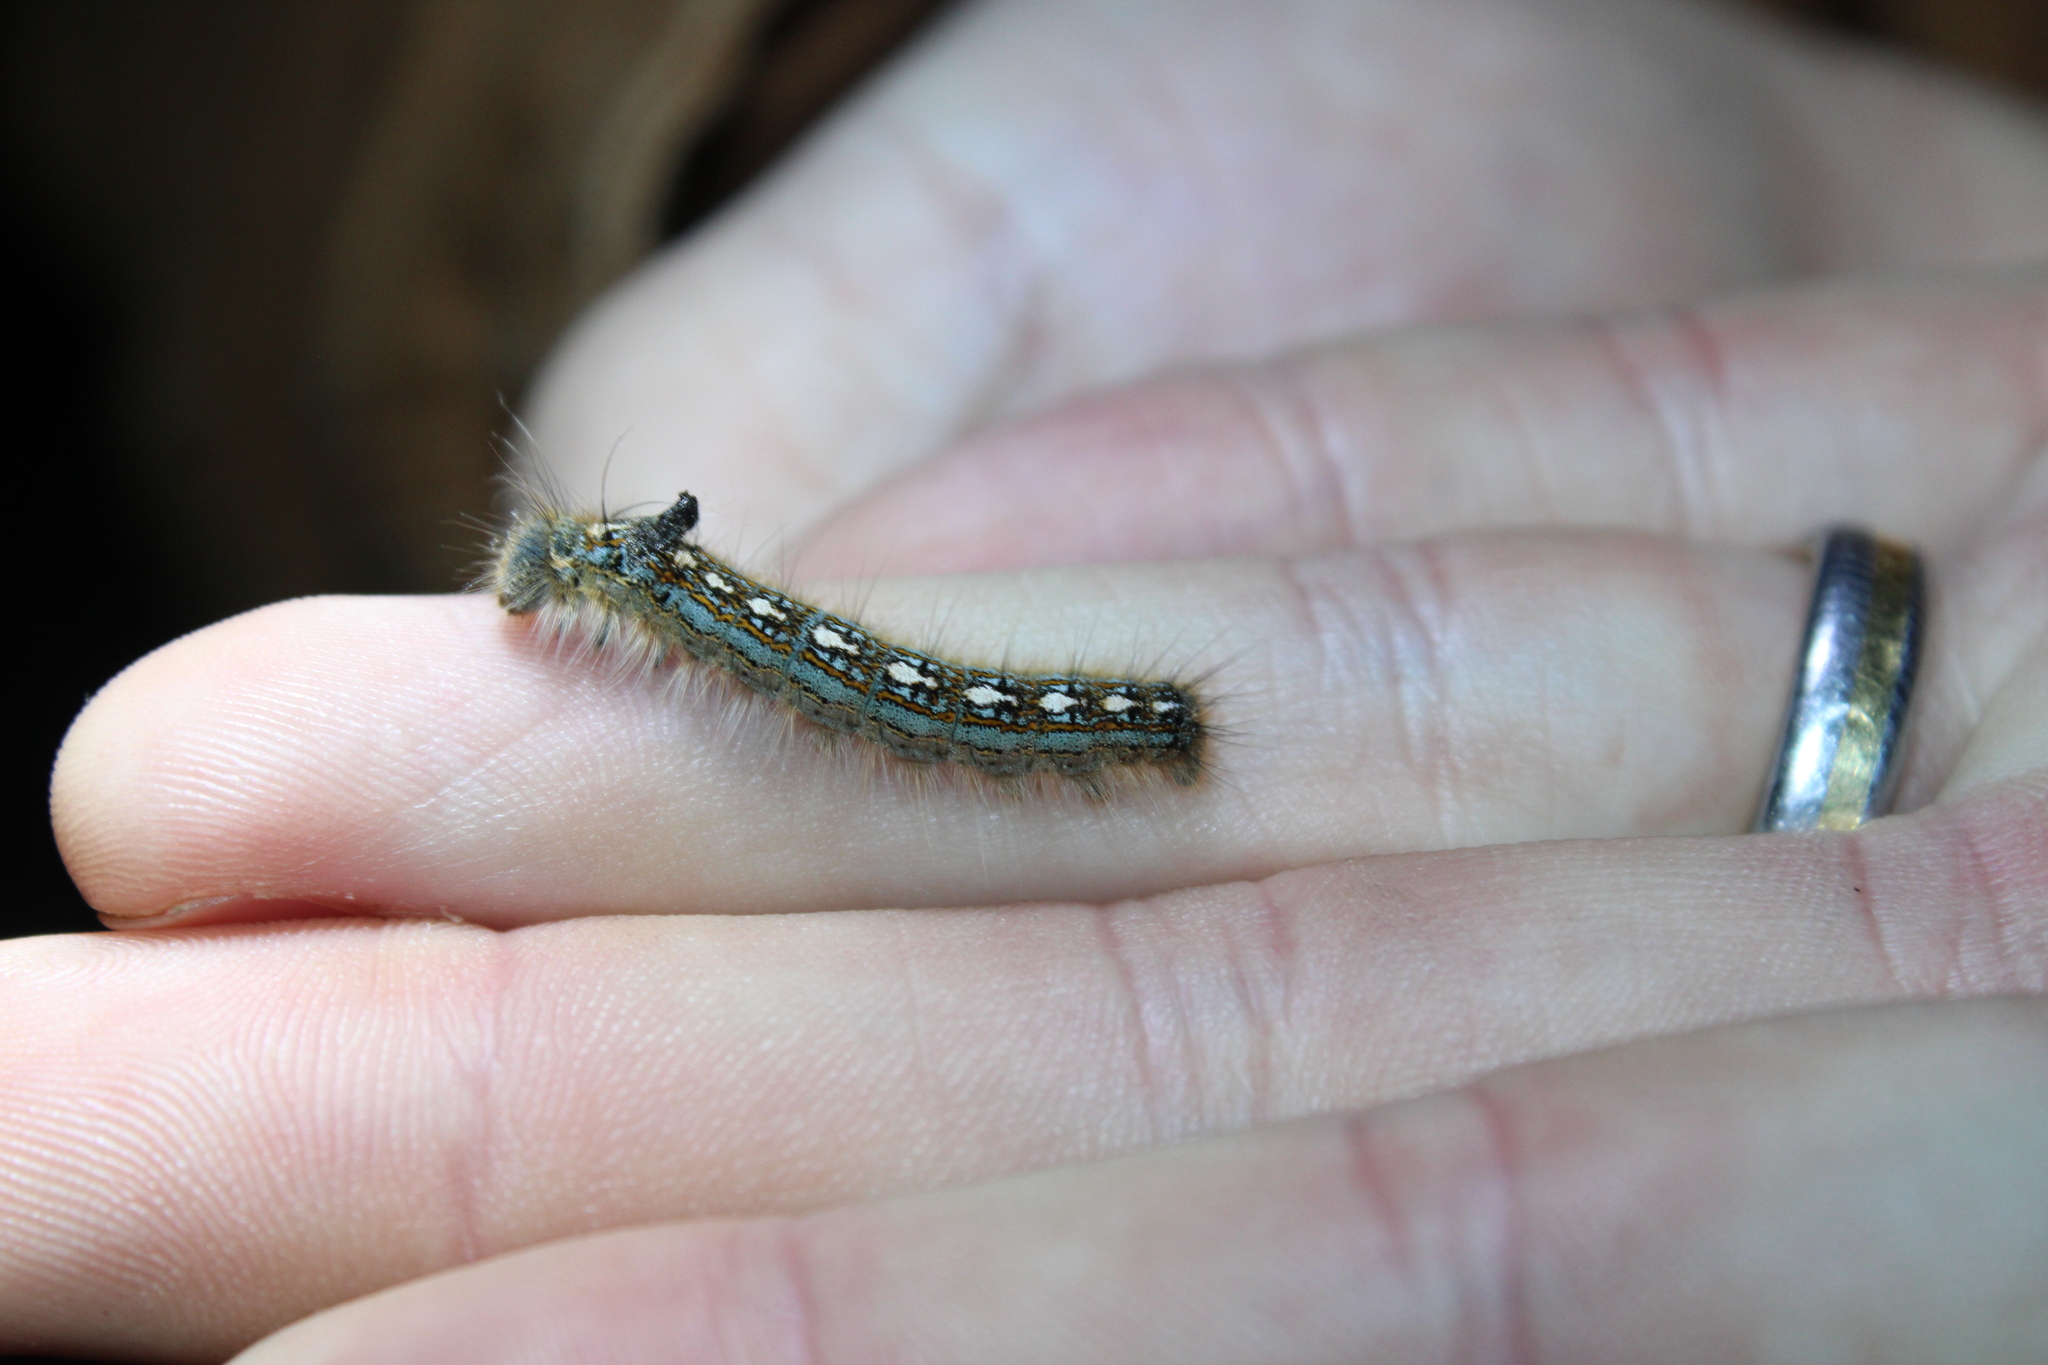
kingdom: Animalia
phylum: Arthropoda
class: Insecta
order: Lepidoptera
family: Lasiocampidae
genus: Malacosoma
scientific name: Malacosoma disstria
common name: Forest tent caterpillar
